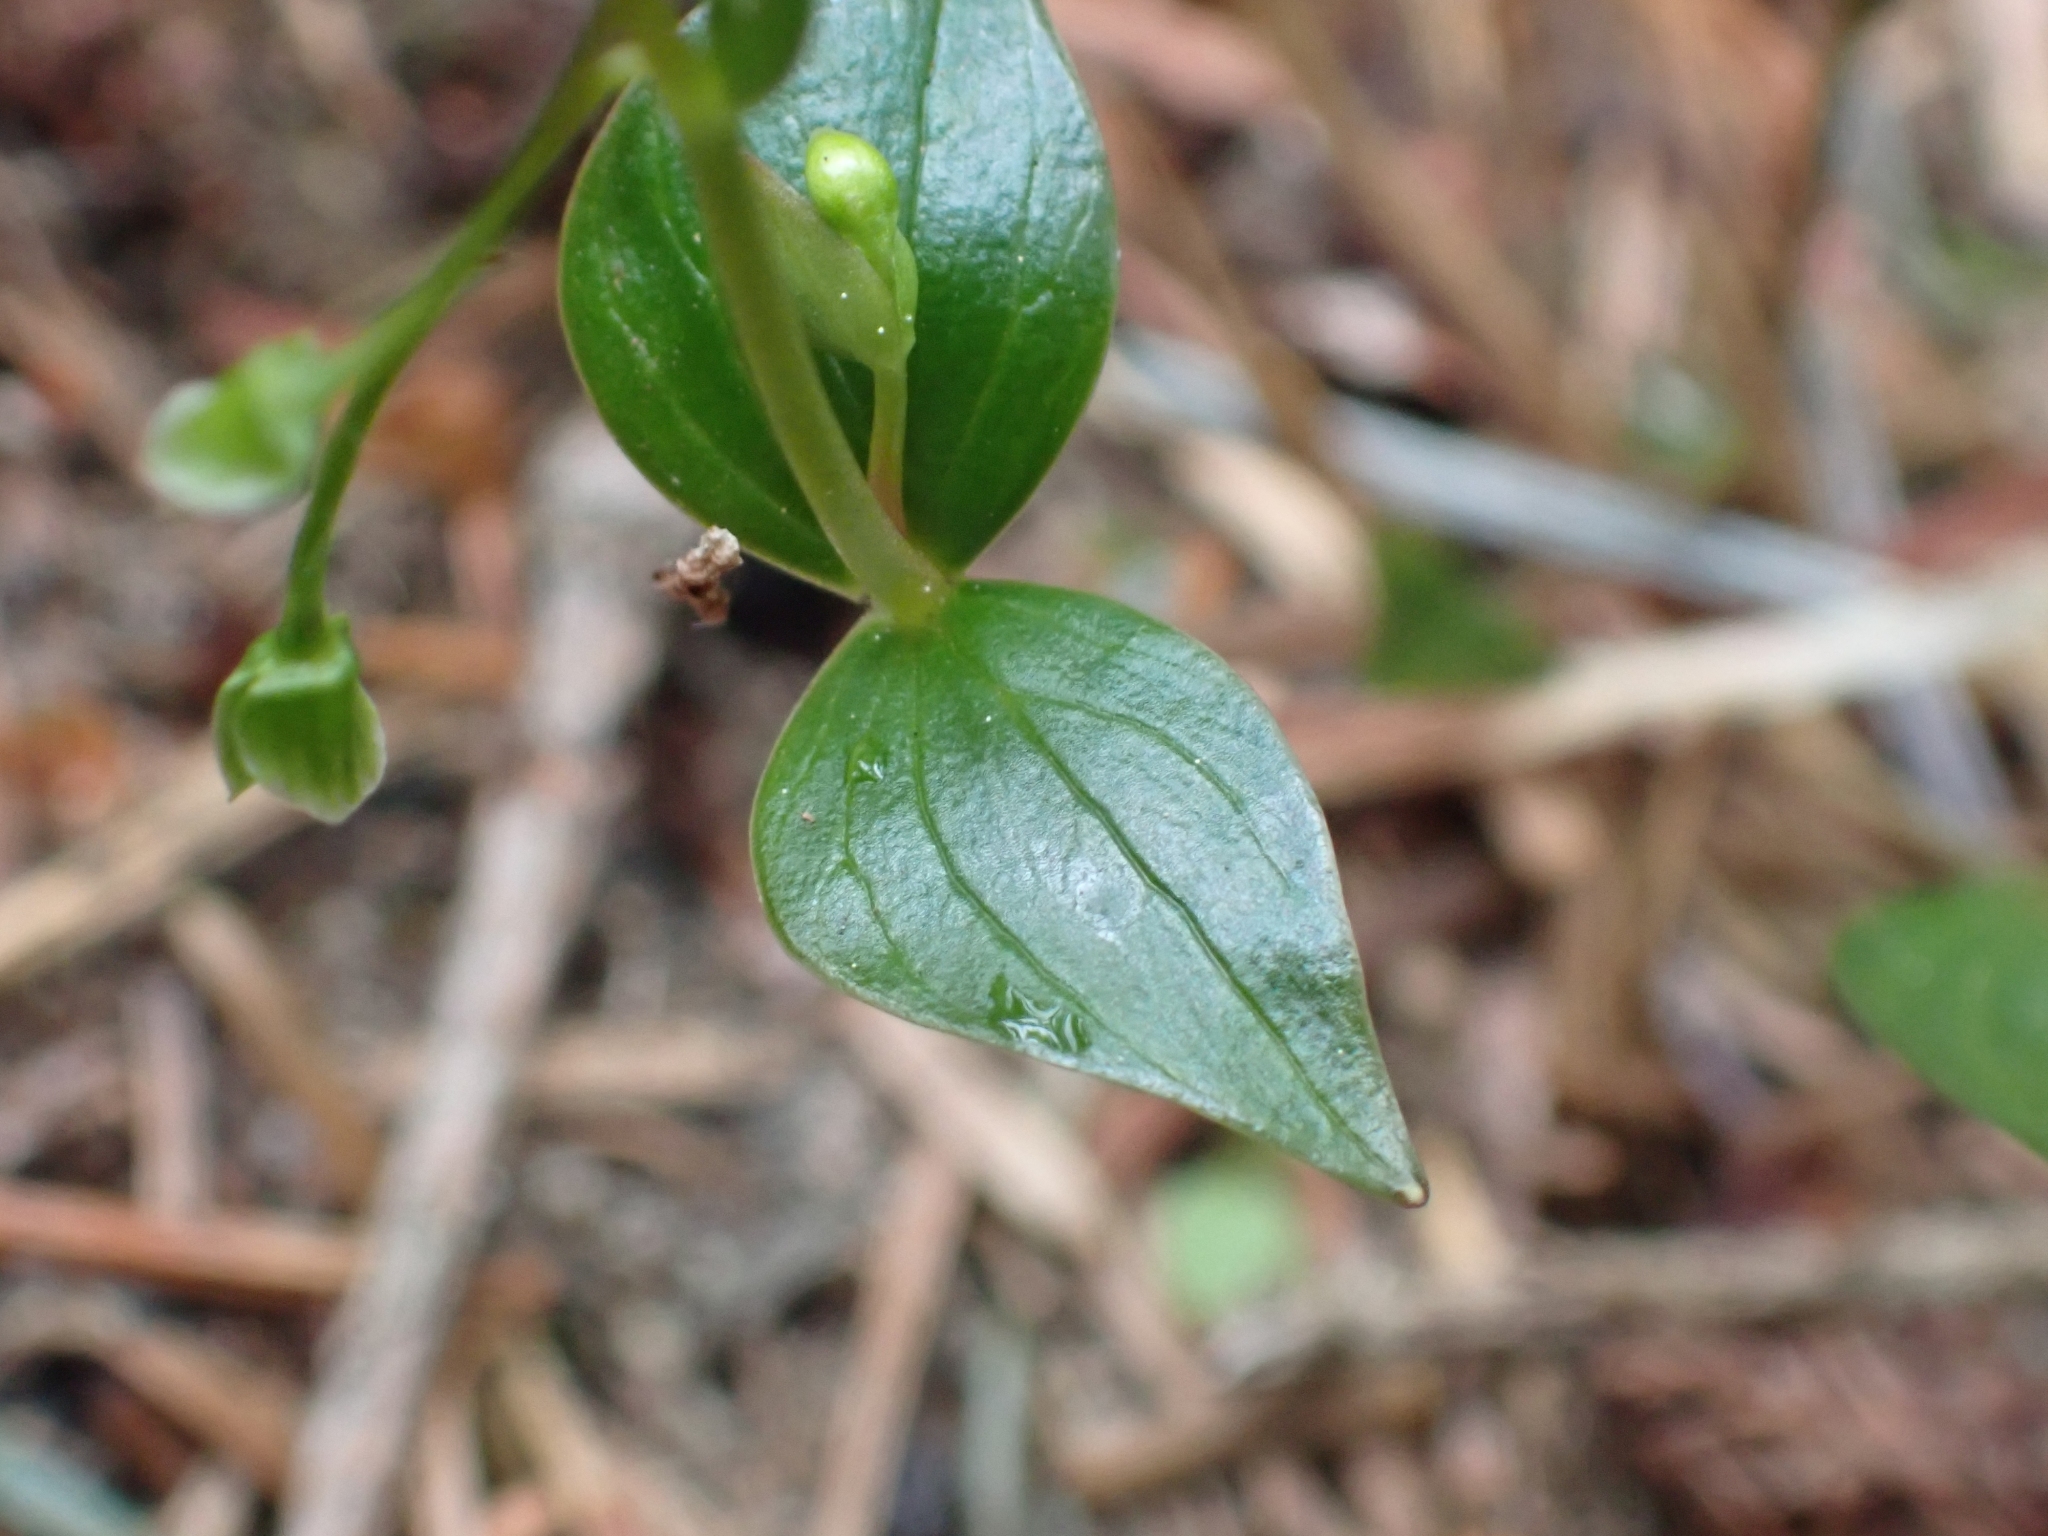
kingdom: Plantae
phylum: Tracheophyta
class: Magnoliopsida
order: Caryophyllales
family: Montiaceae
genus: Claytonia
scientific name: Claytonia sibirica
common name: Pink purslane
